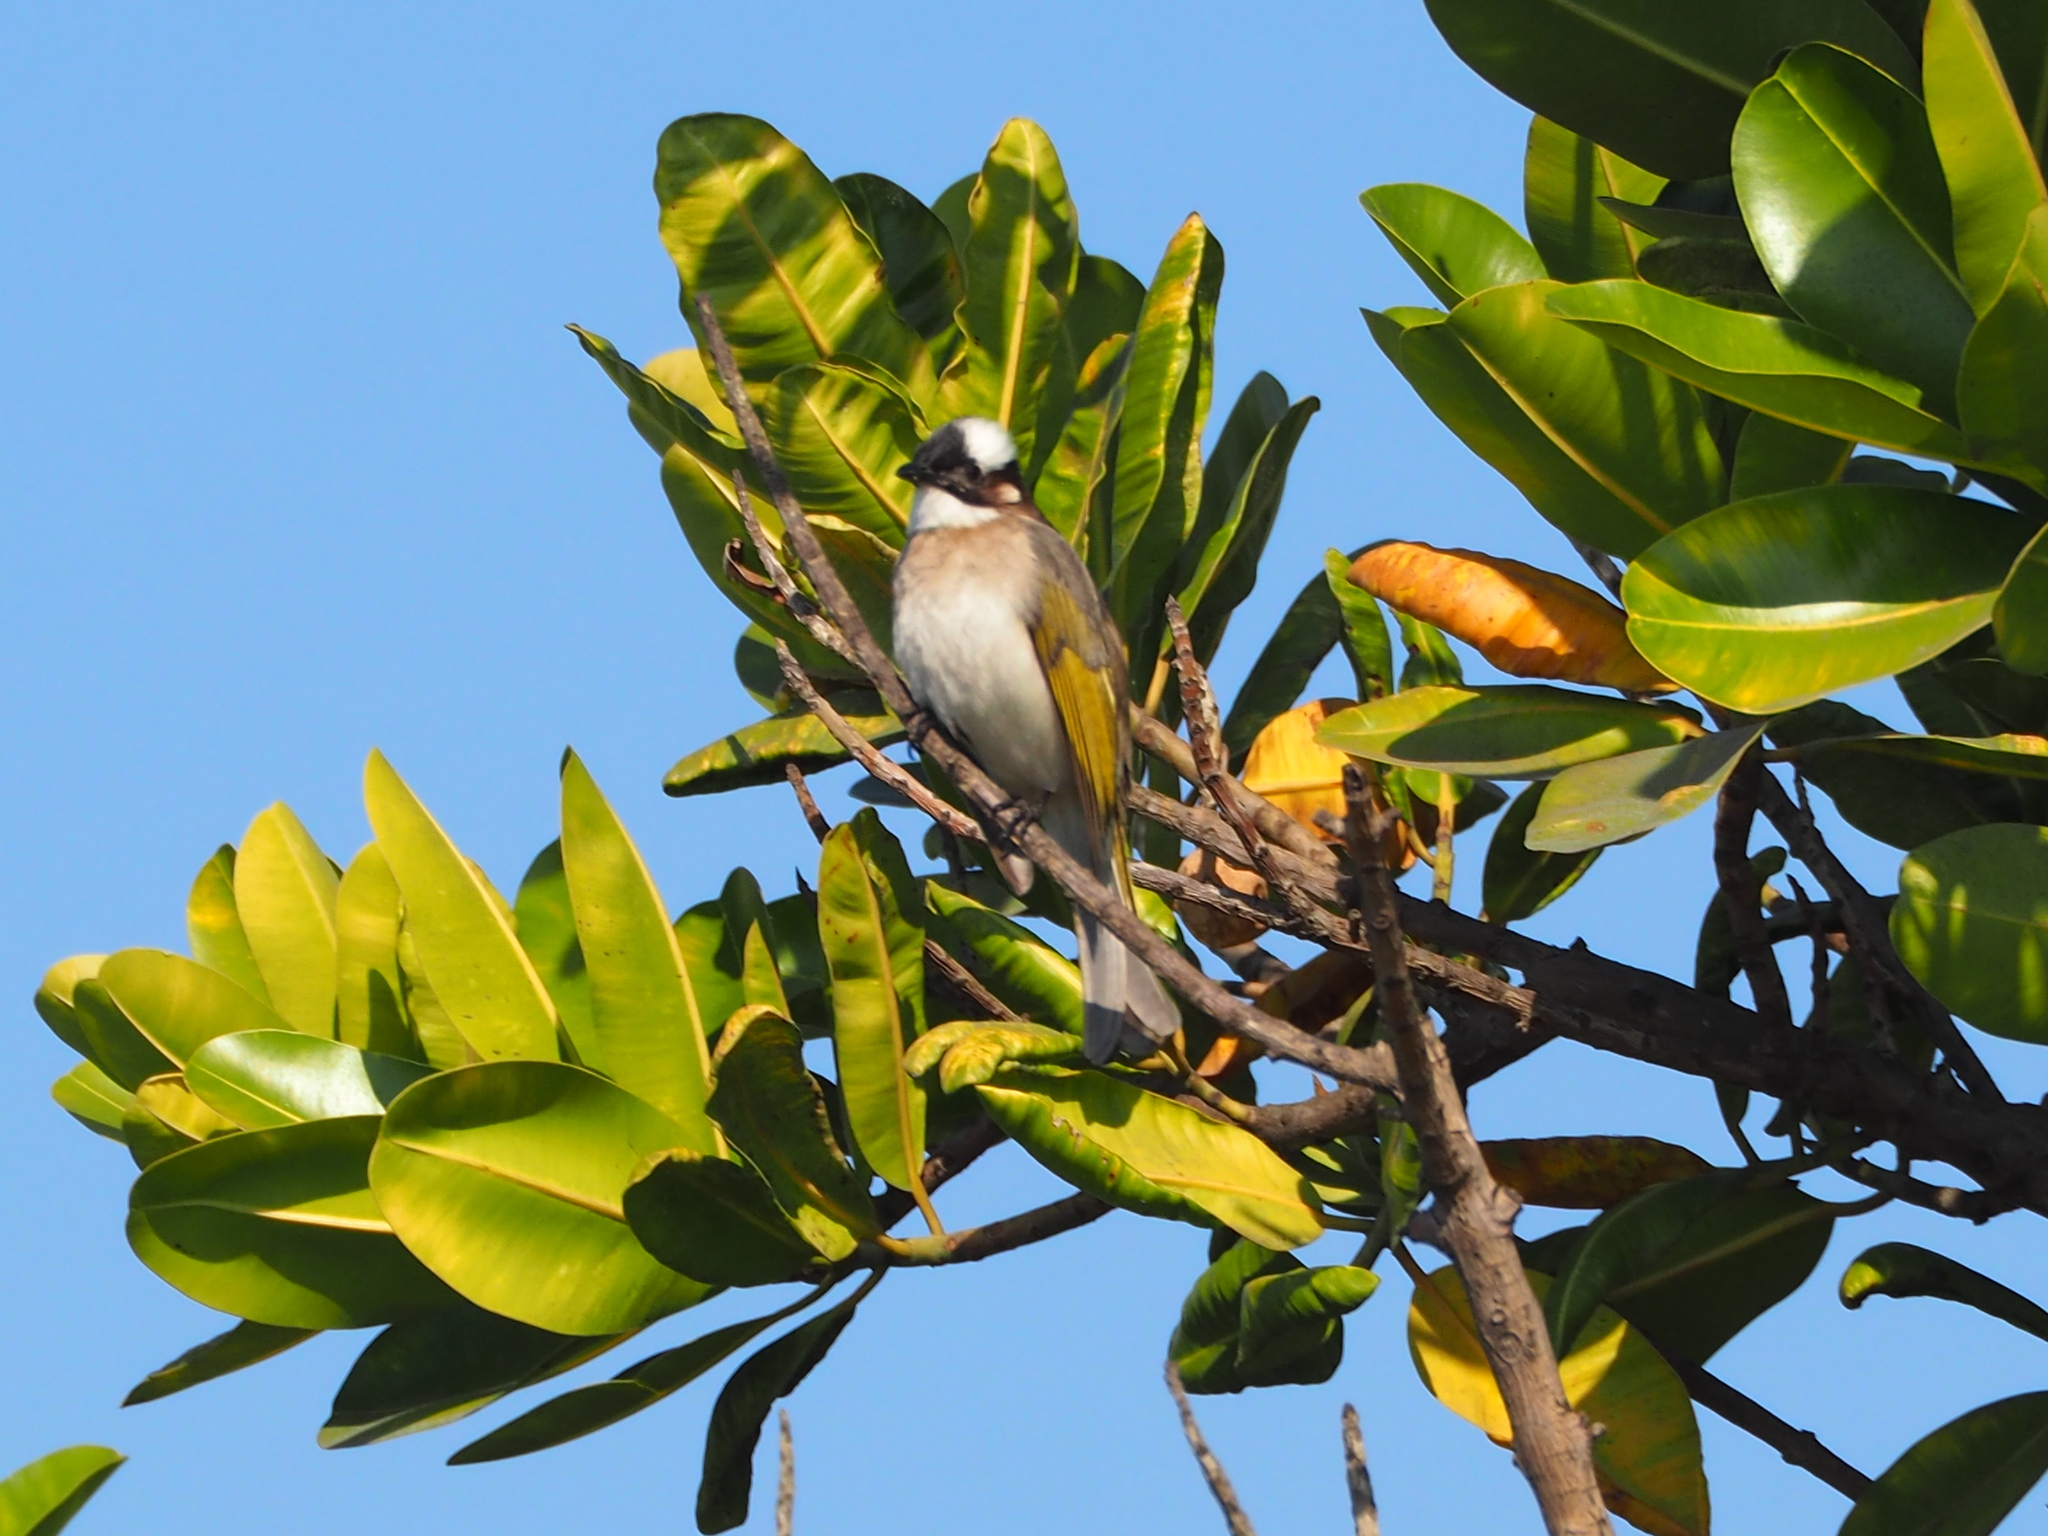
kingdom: Animalia
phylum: Chordata
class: Aves
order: Passeriformes
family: Pycnonotidae
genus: Pycnonotus
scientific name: Pycnonotus sinensis
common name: Light-vented bulbul
